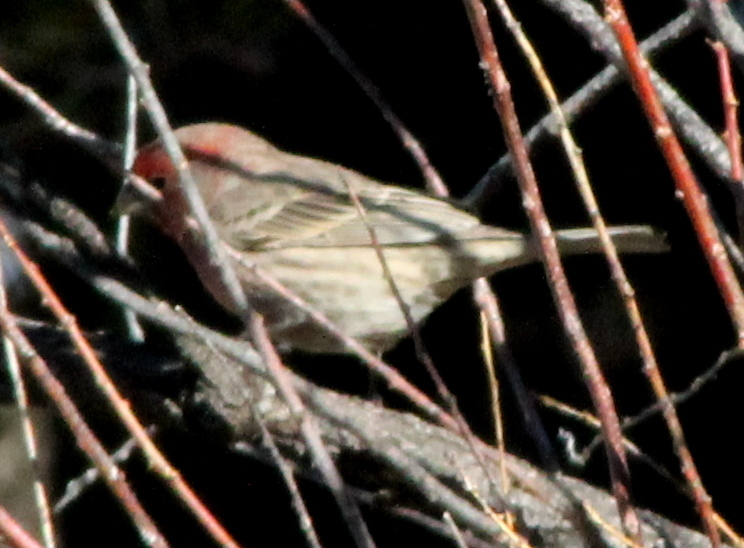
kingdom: Animalia
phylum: Chordata
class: Aves
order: Passeriformes
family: Fringillidae
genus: Haemorhous
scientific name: Haemorhous mexicanus
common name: House finch
